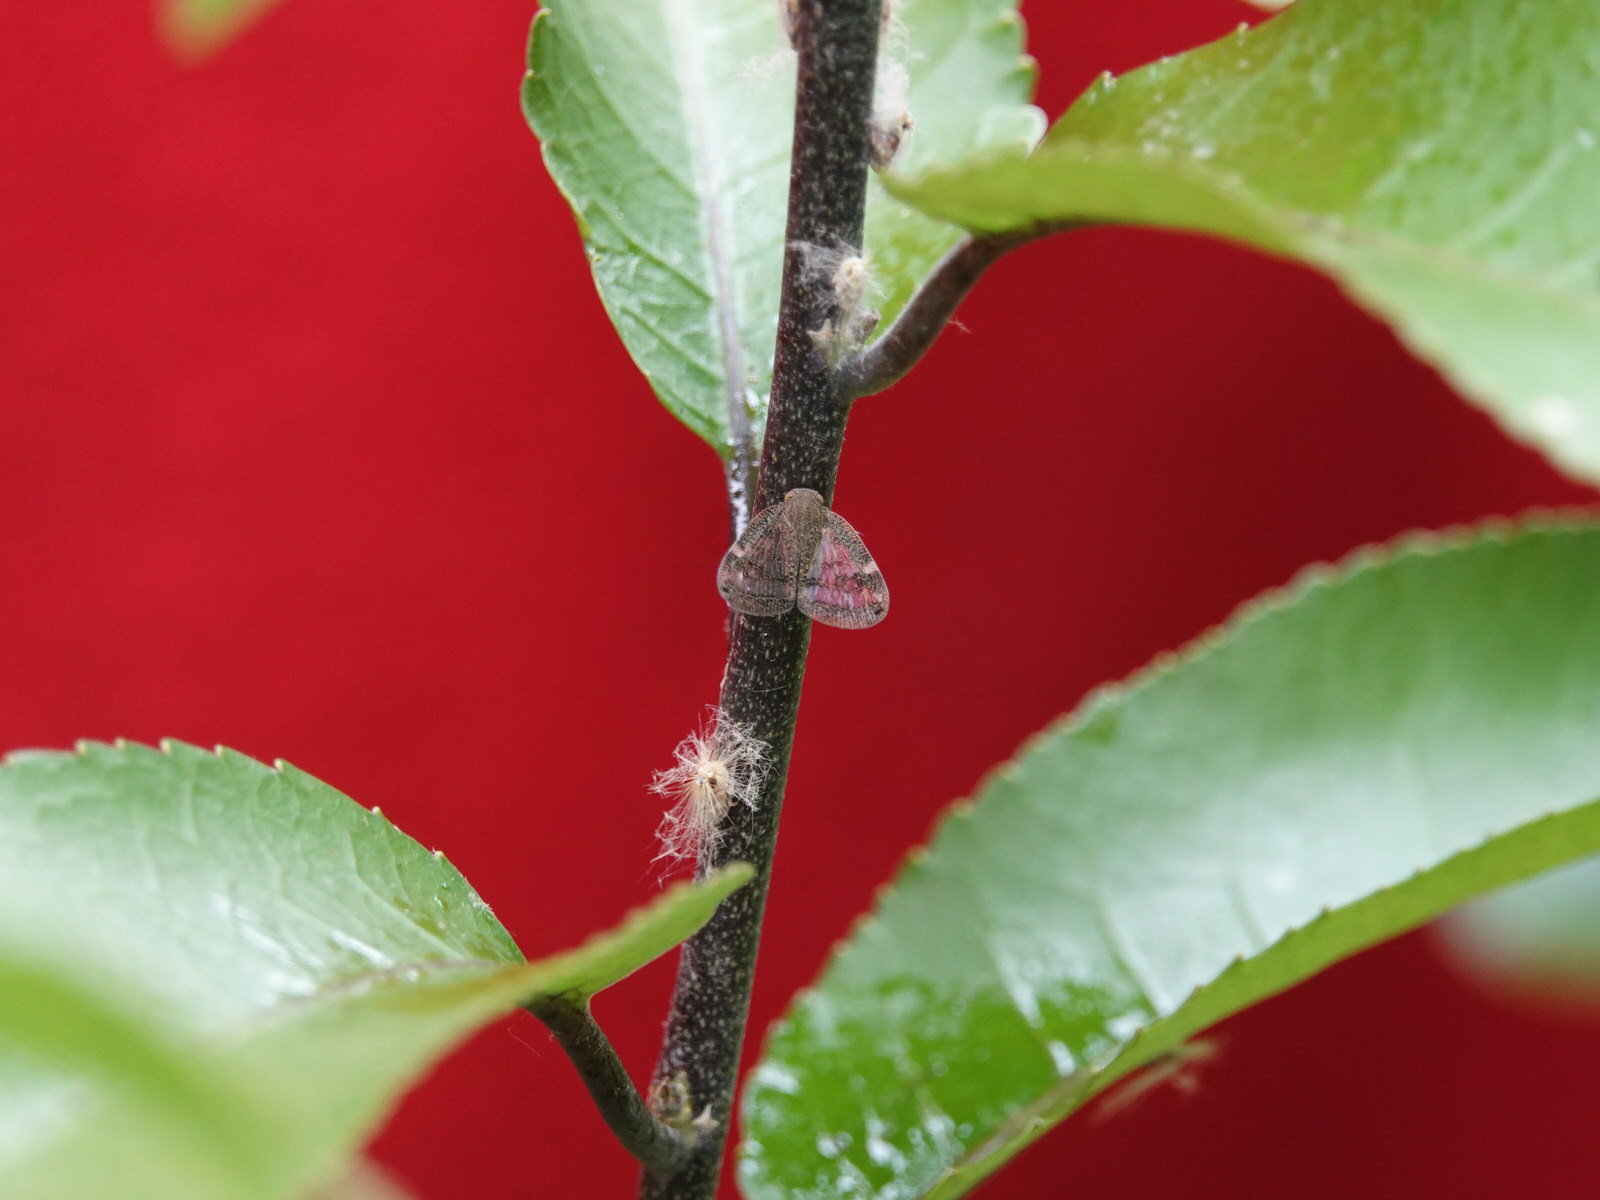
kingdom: Animalia
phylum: Arthropoda
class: Insecta
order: Hemiptera
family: Ricaniidae
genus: Scolypopa
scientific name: Scolypopa australis
